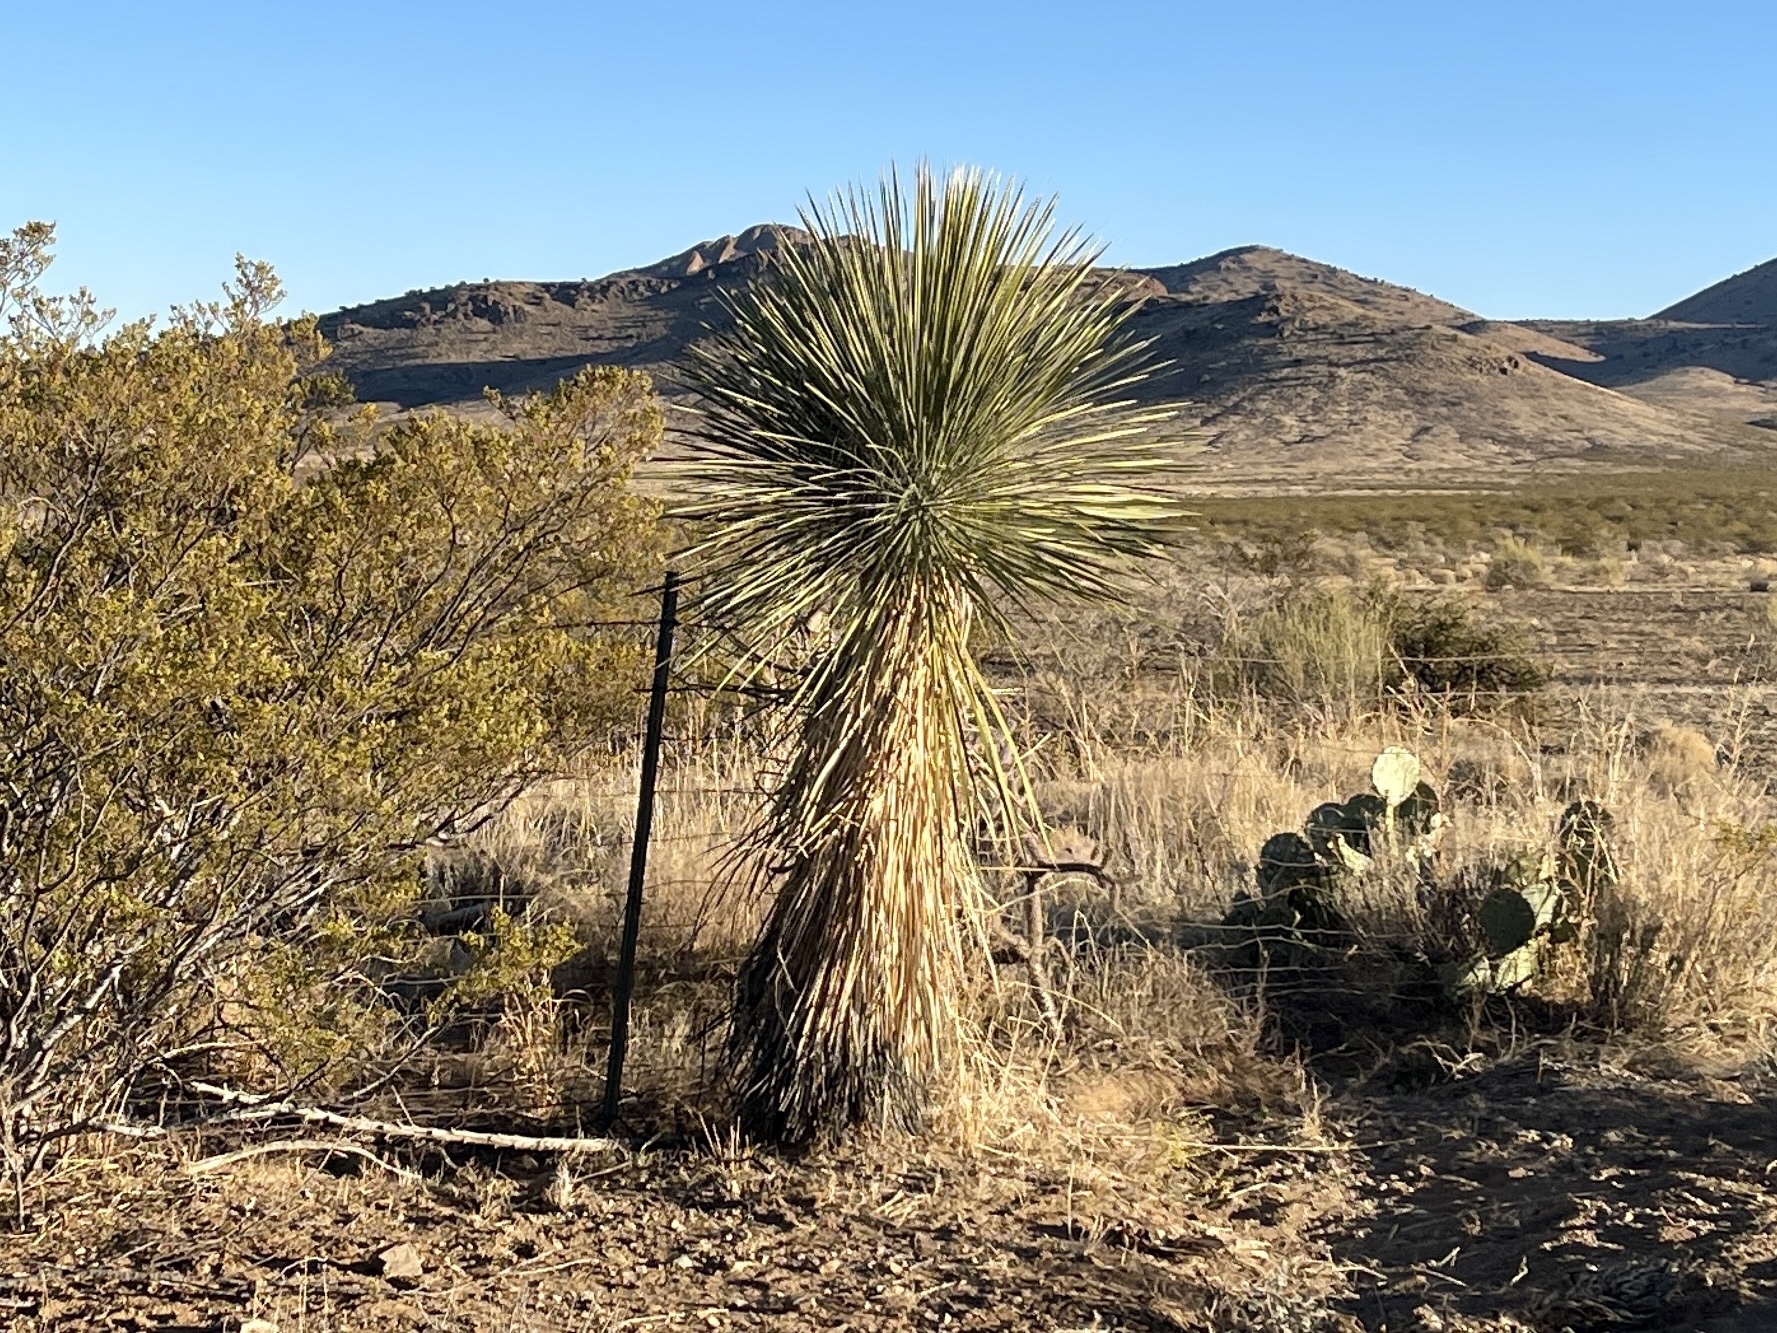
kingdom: Plantae
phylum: Tracheophyta
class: Liliopsida
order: Asparagales
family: Asparagaceae
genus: Yucca
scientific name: Yucca elata
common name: Palmella
